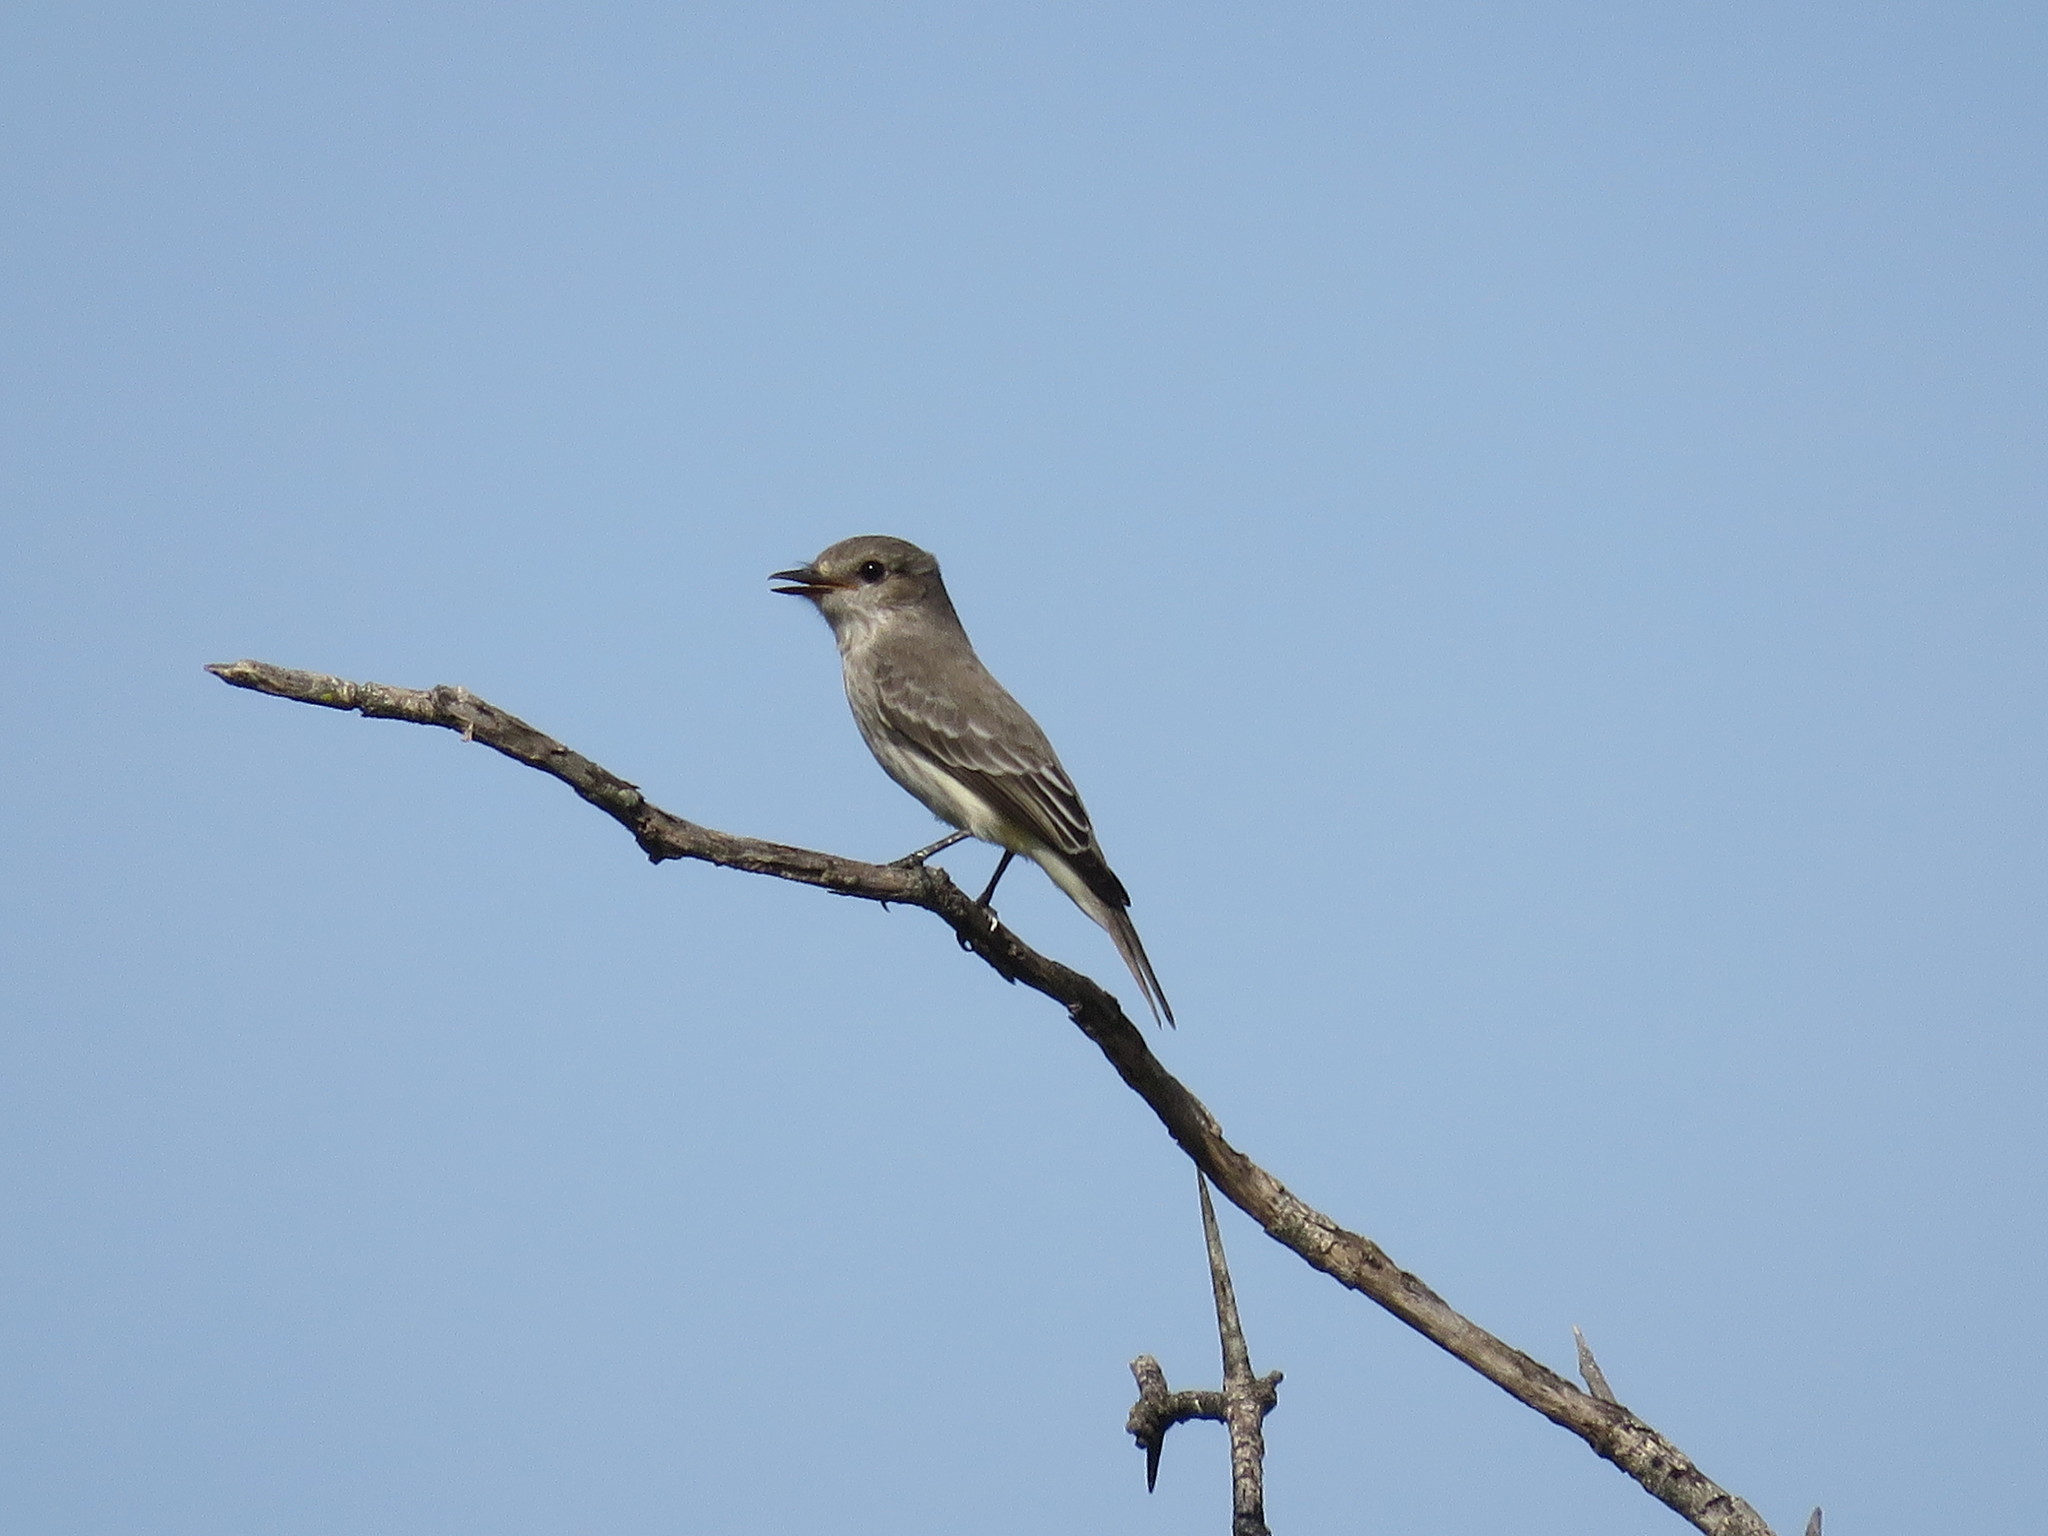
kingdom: Animalia
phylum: Chordata
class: Aves
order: Passeriformes
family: Tyrannidae
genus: Pyrocephalus
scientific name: Pyrocephalus rubinus
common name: Vermilion flycatcher
